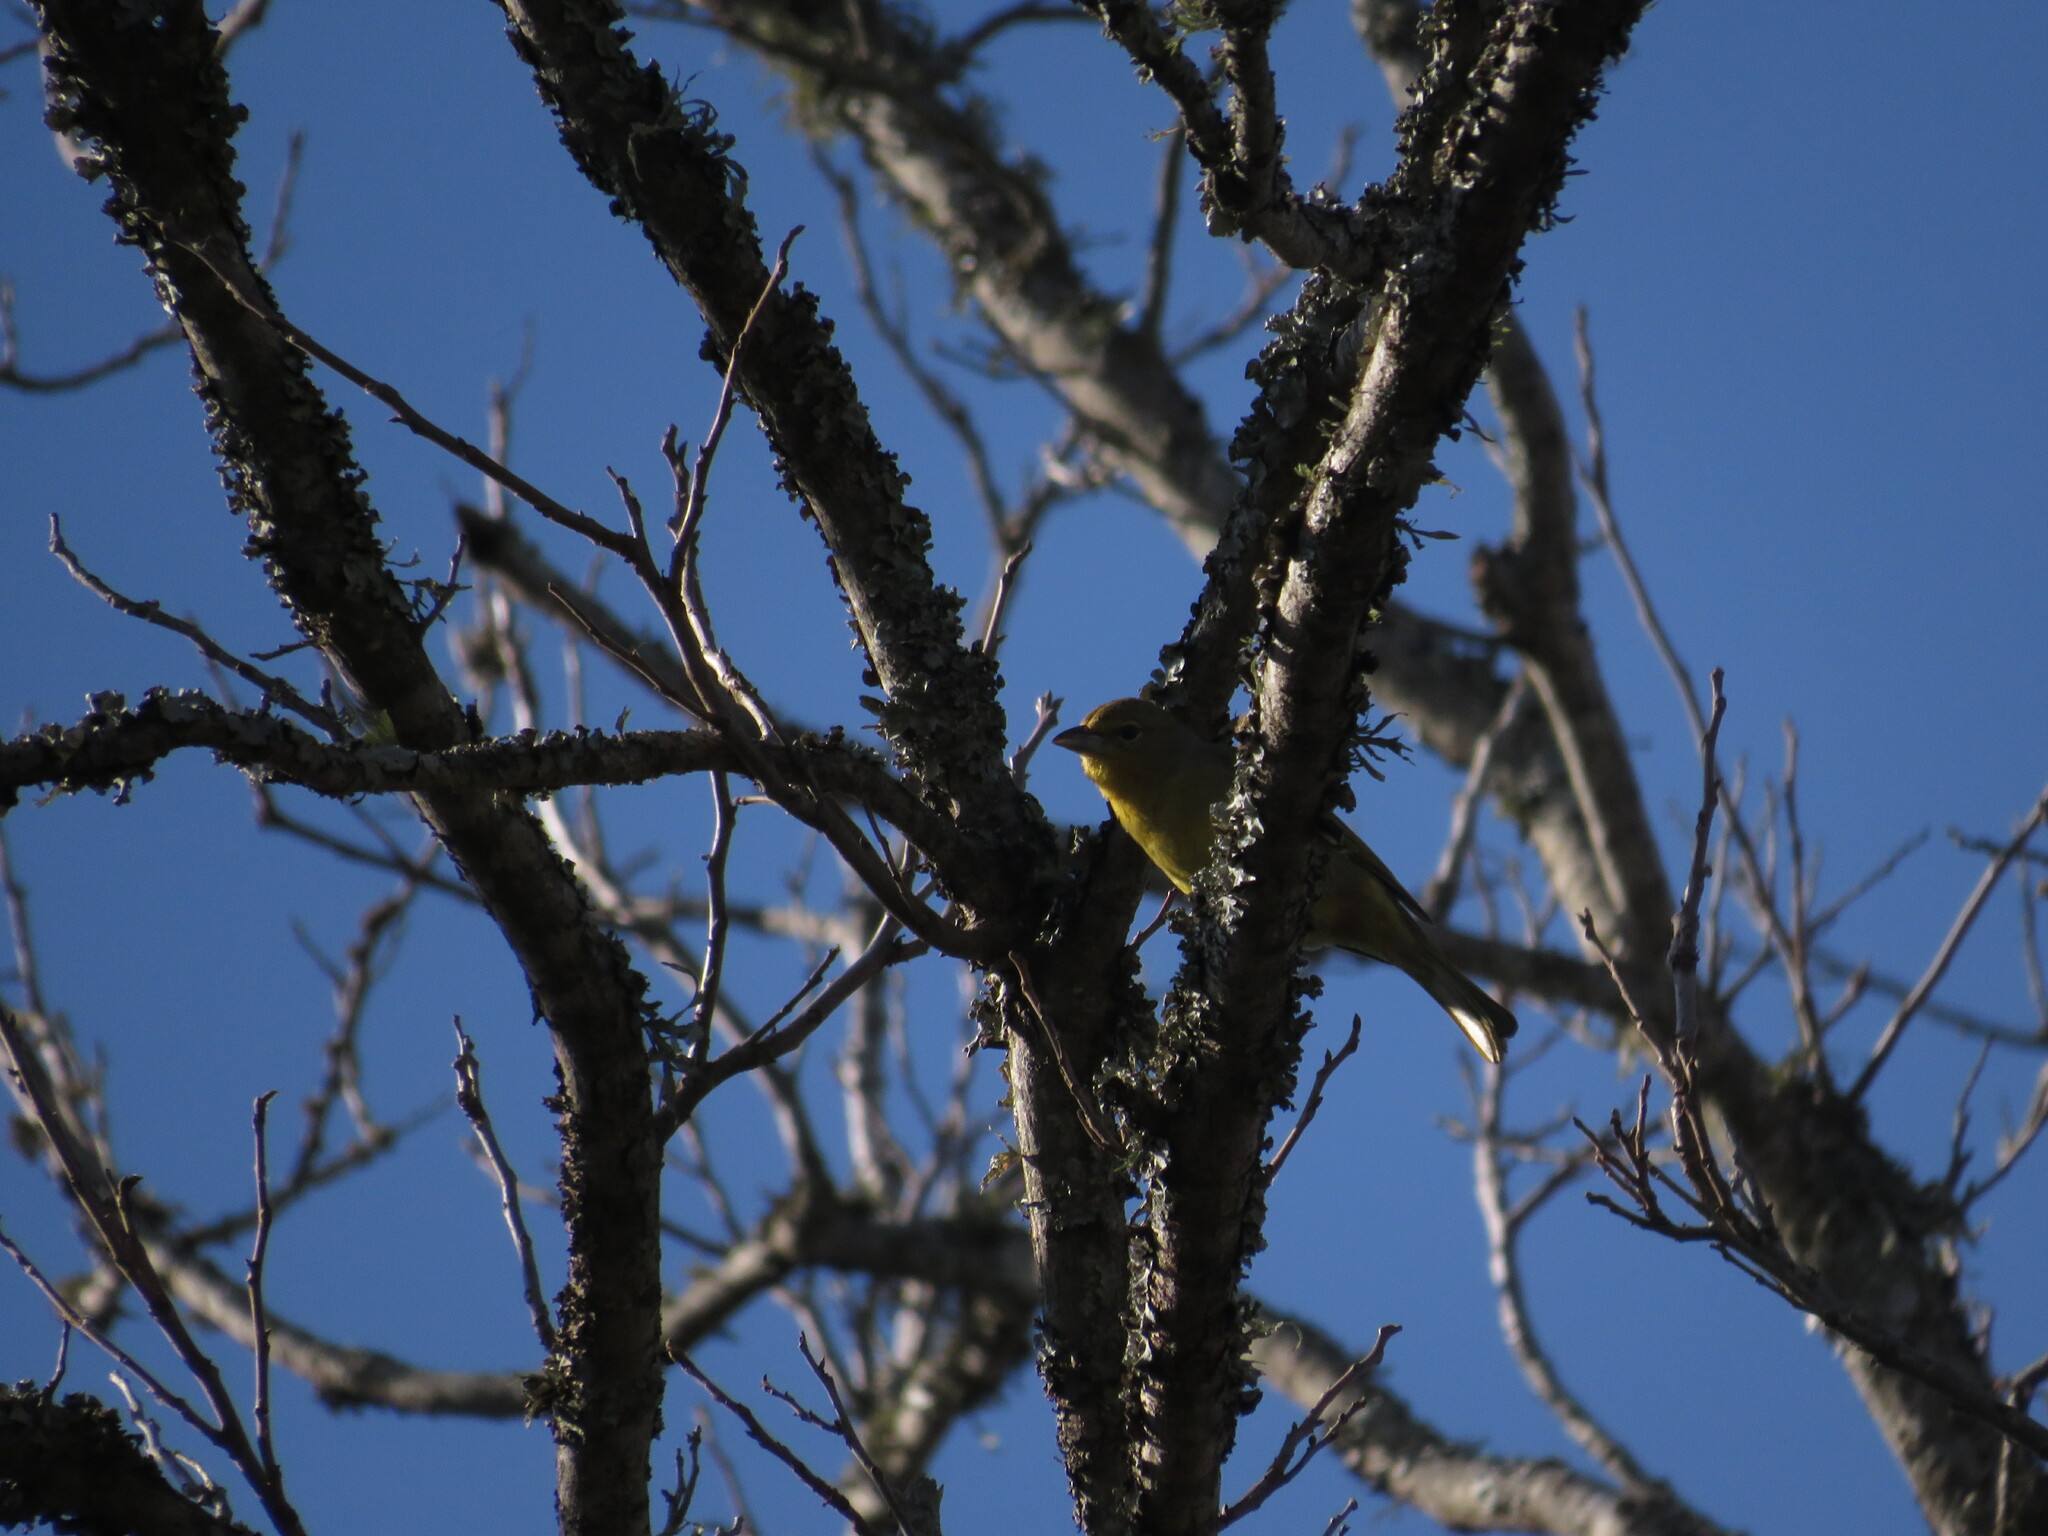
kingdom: Animalia
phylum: Chordata
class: Aves
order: Passeriformes
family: Cardinalidae
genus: Piranga
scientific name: Piranga flava
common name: Red tanager
